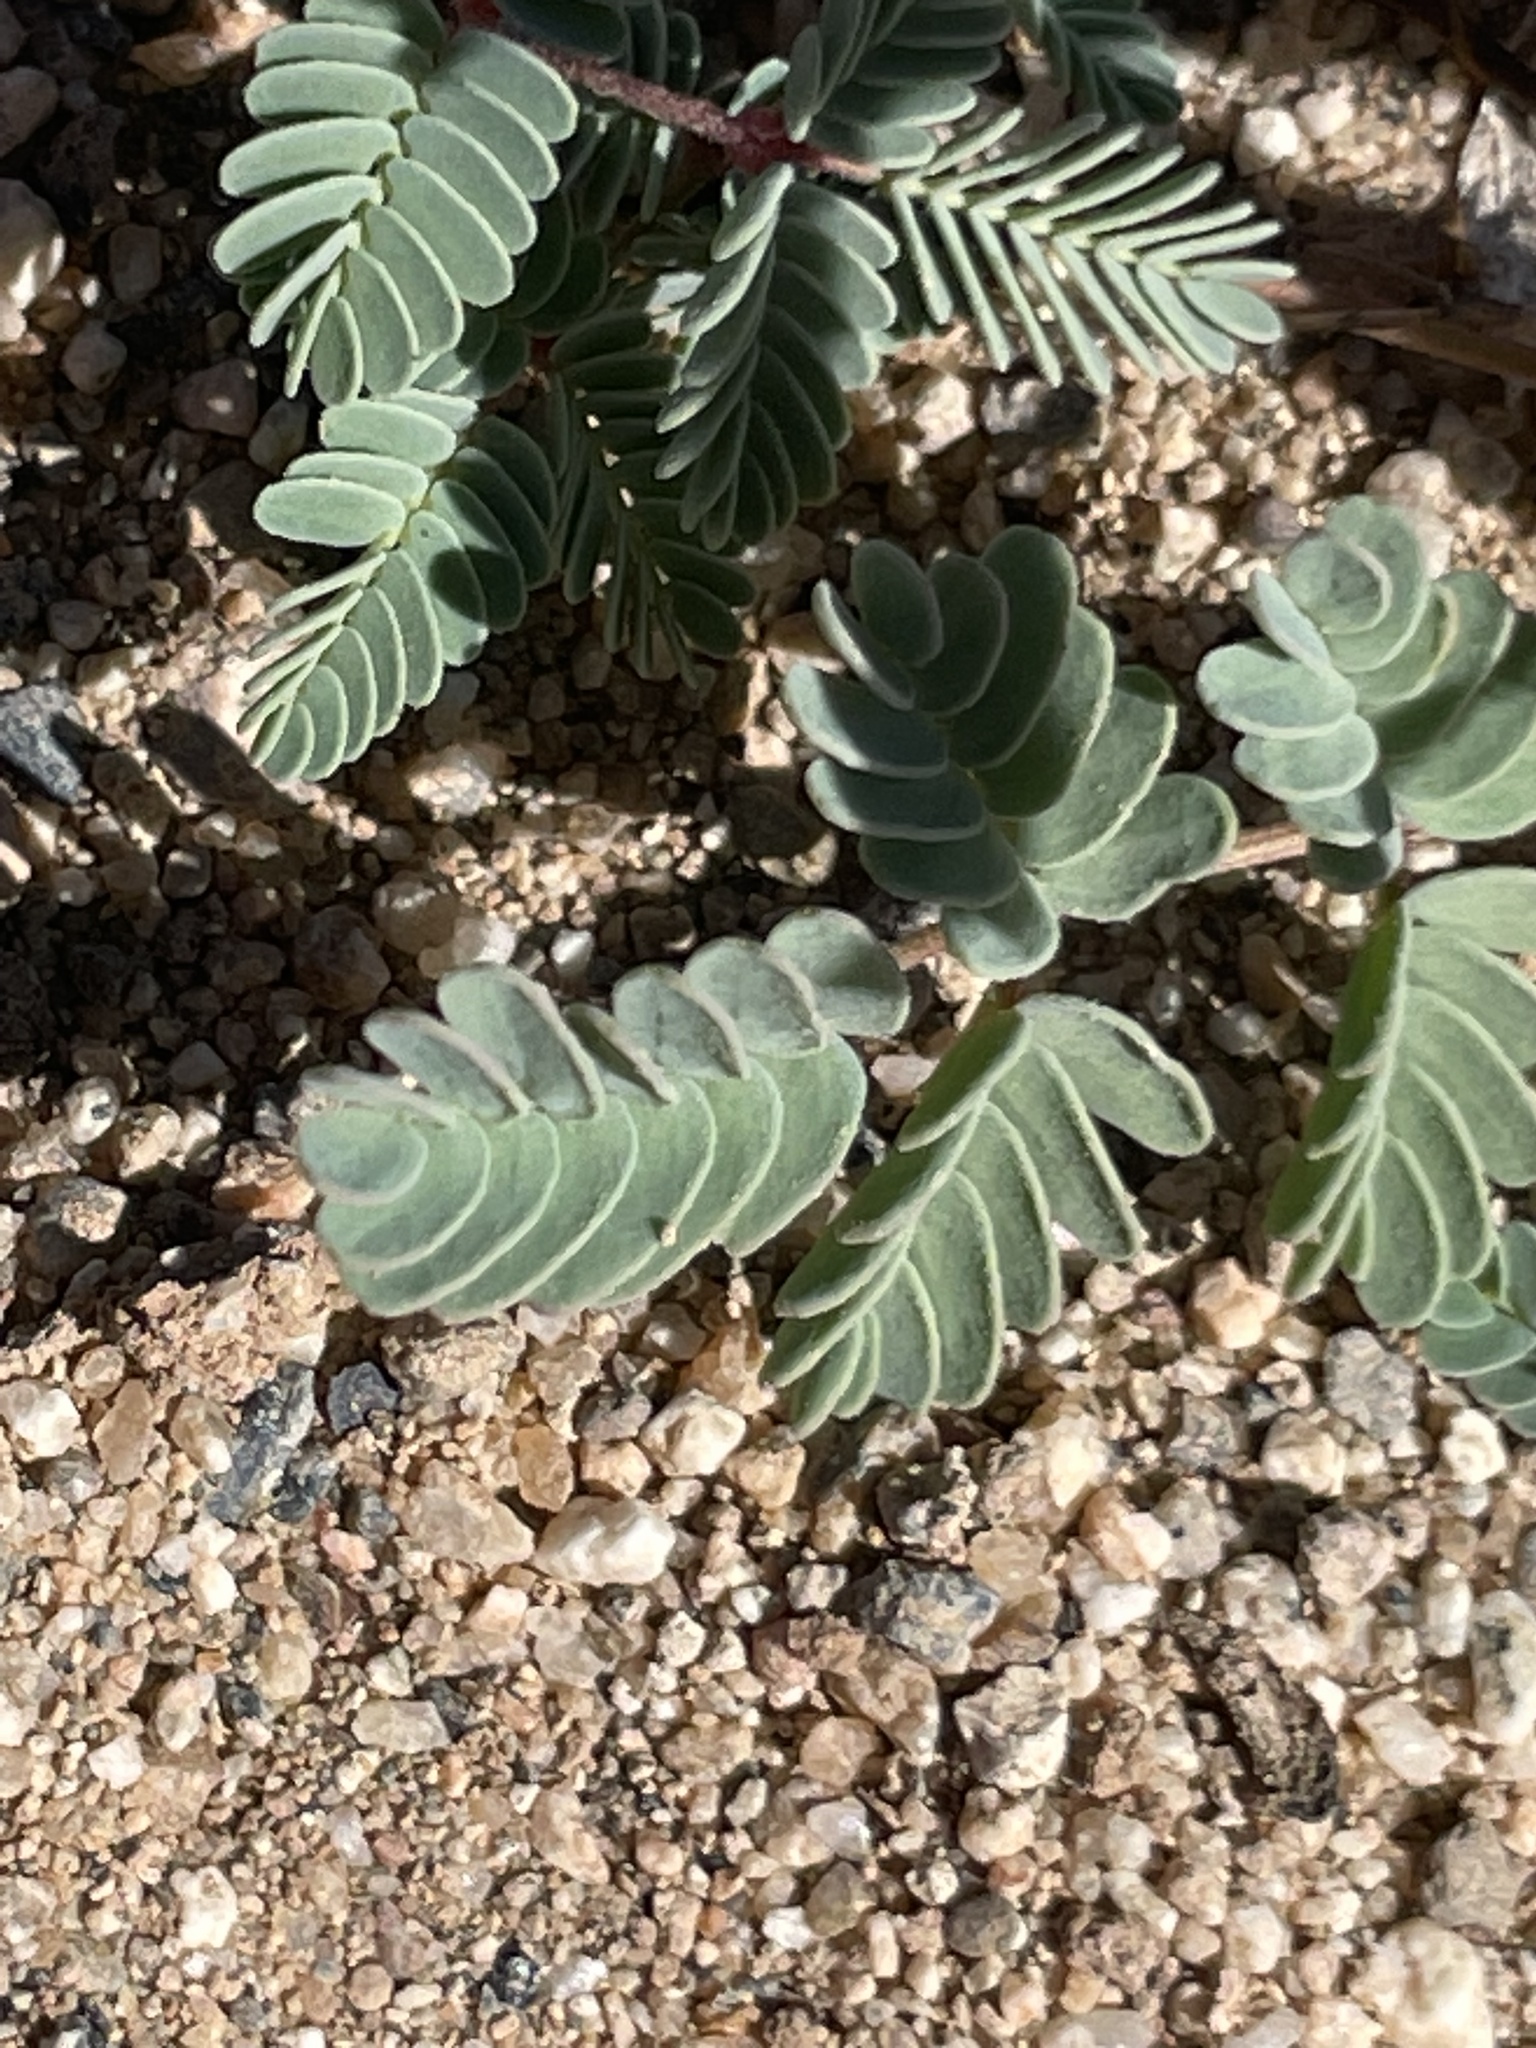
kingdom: Plantae
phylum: Tracheophyta
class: Magnoliopsida
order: Fabales
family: Fabaceae
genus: Hoffmannseggia
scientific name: Hoffmannseggia glauca
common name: Pignut
